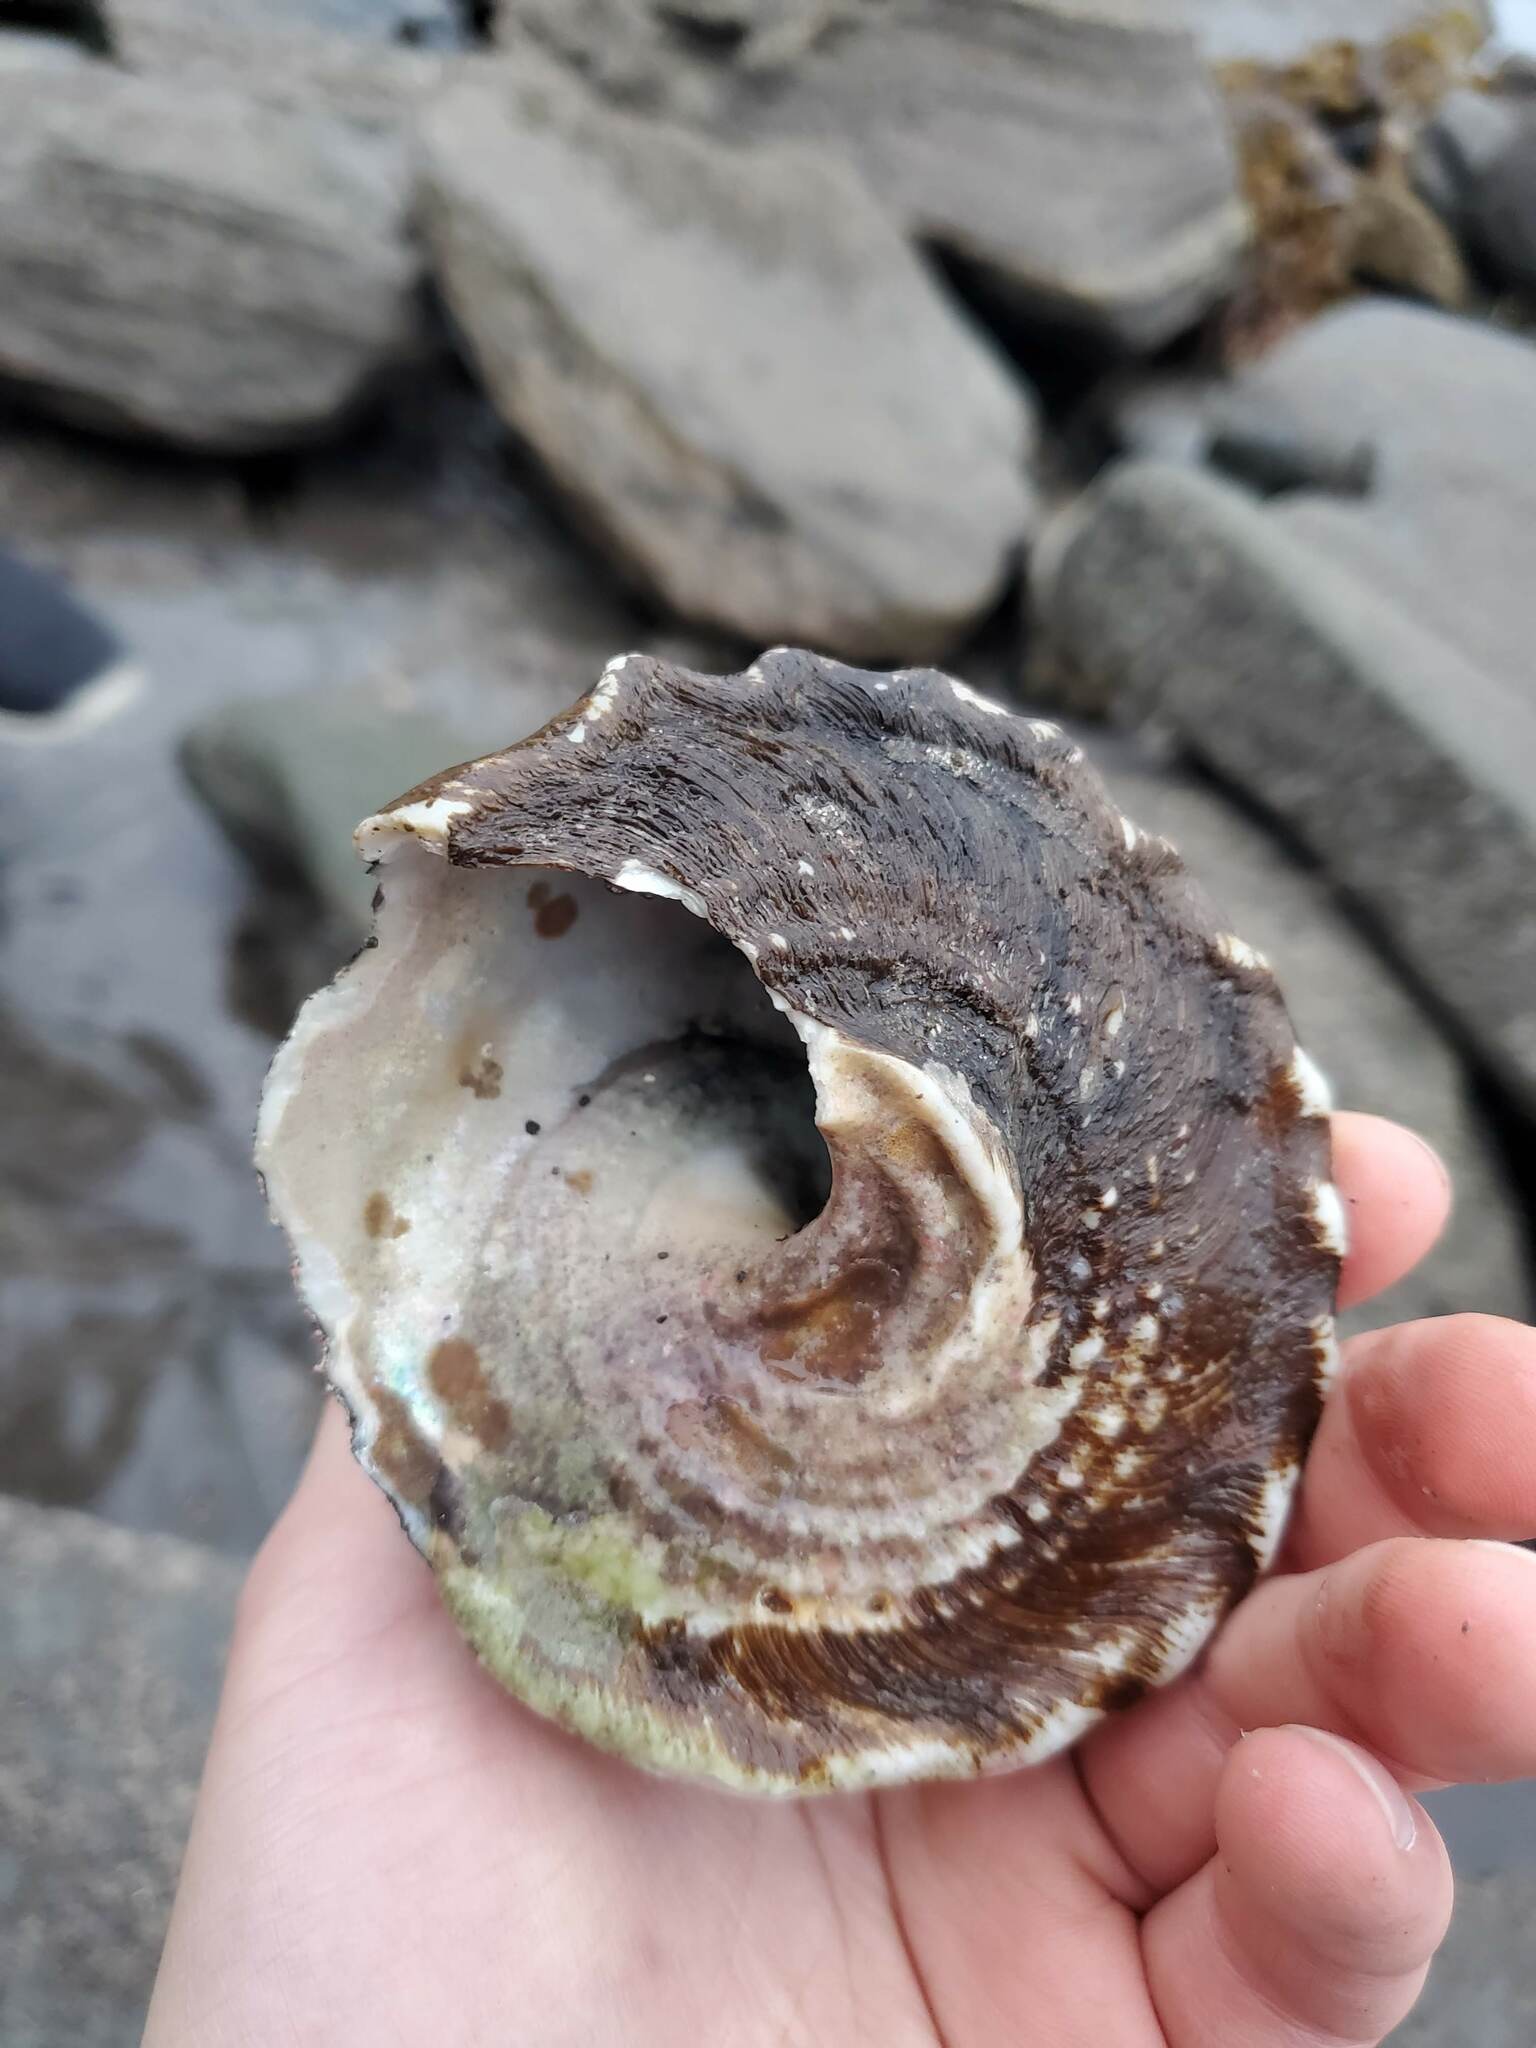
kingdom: Animalia
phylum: Mollusca
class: Gastropoda
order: Trochida
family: Turbinidae
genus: Megastraea
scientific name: Megastraea undosa
